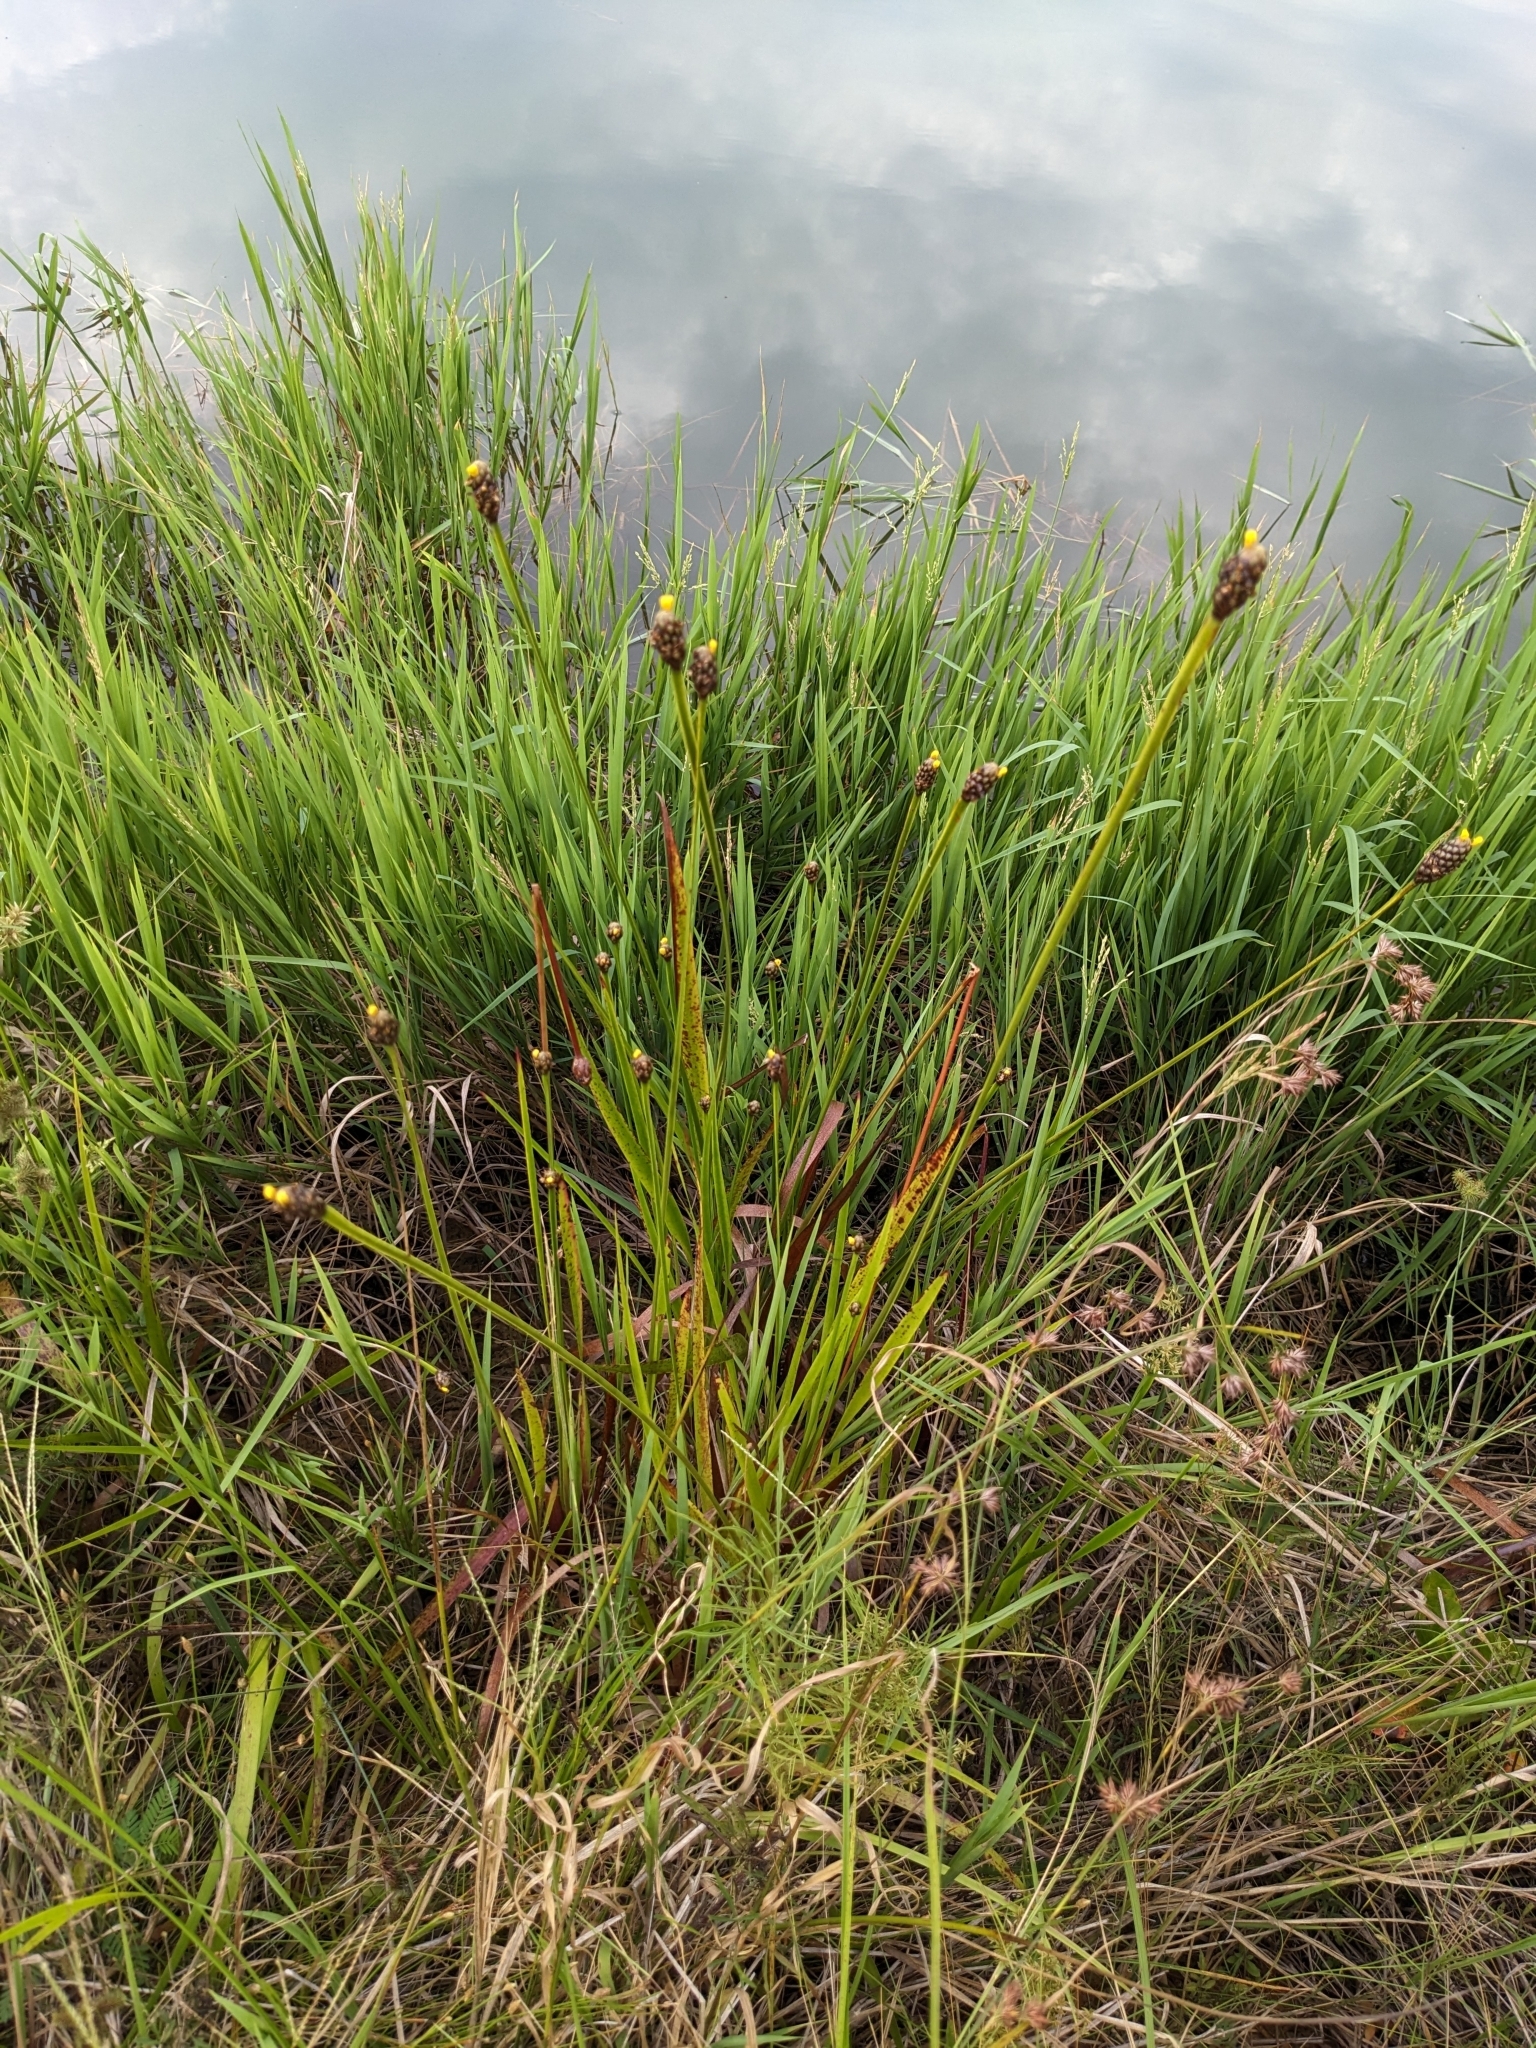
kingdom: Plantae
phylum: Tracheophyta
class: Liliopsida
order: Poales
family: Xyridaceae
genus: Xyris
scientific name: Xyris laxifolia
